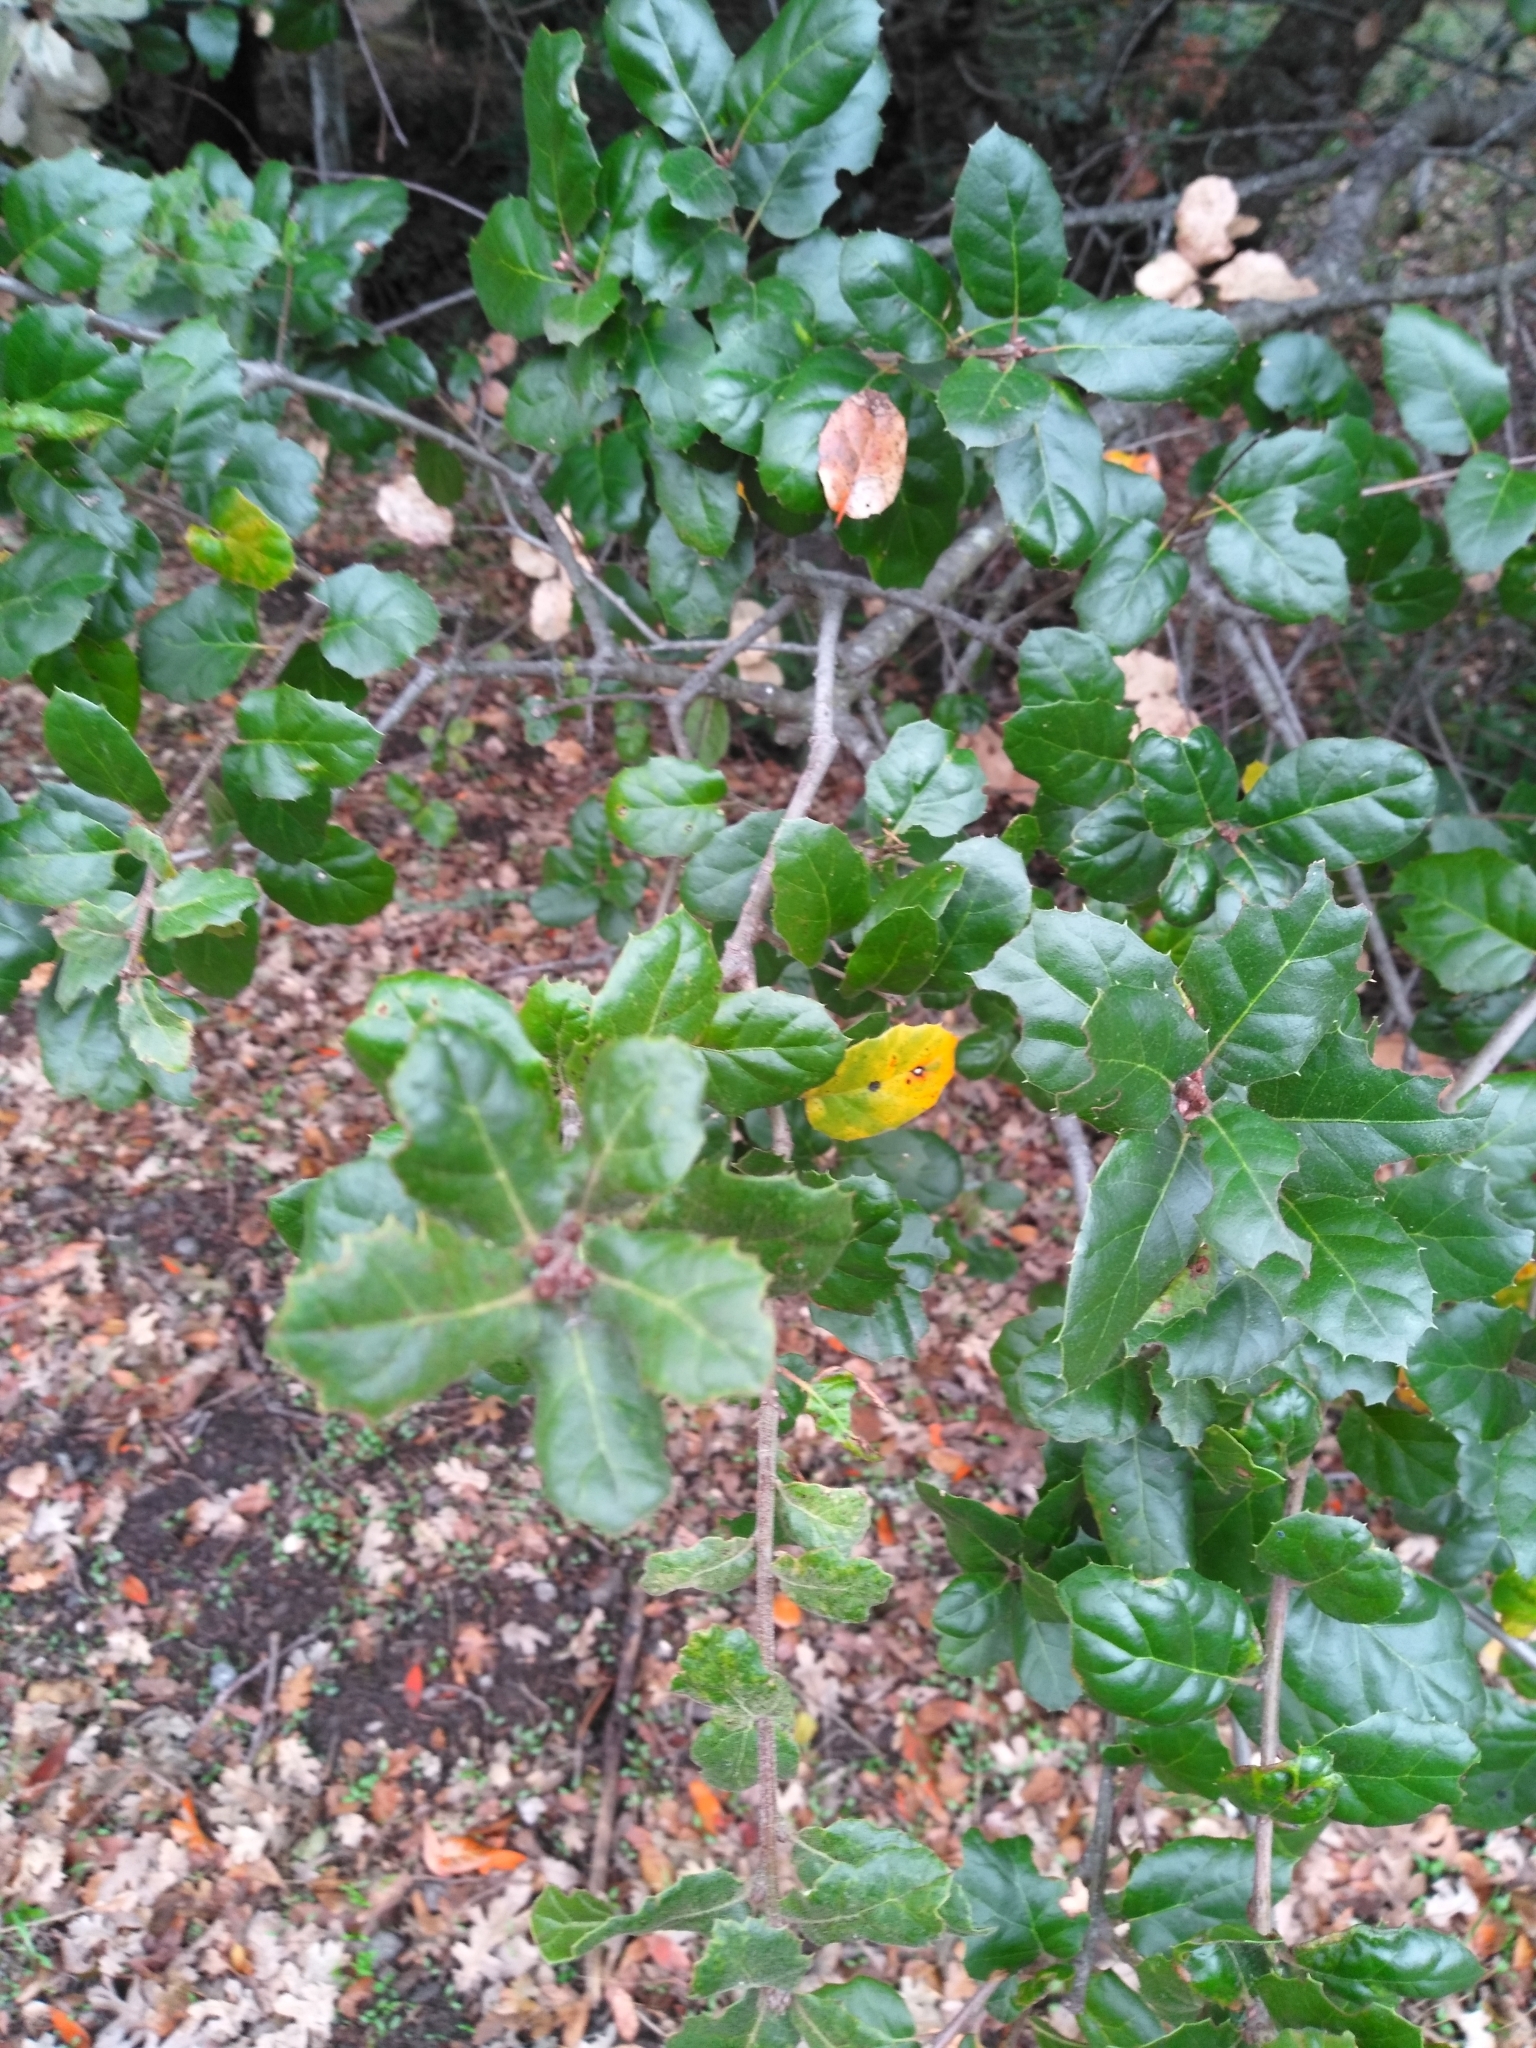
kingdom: Plantae
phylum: Tracheophyta
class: Magnoliopsida
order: Fagales
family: Fagaceae
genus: Quercus
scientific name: Quercus agrifolia
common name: California live oak
